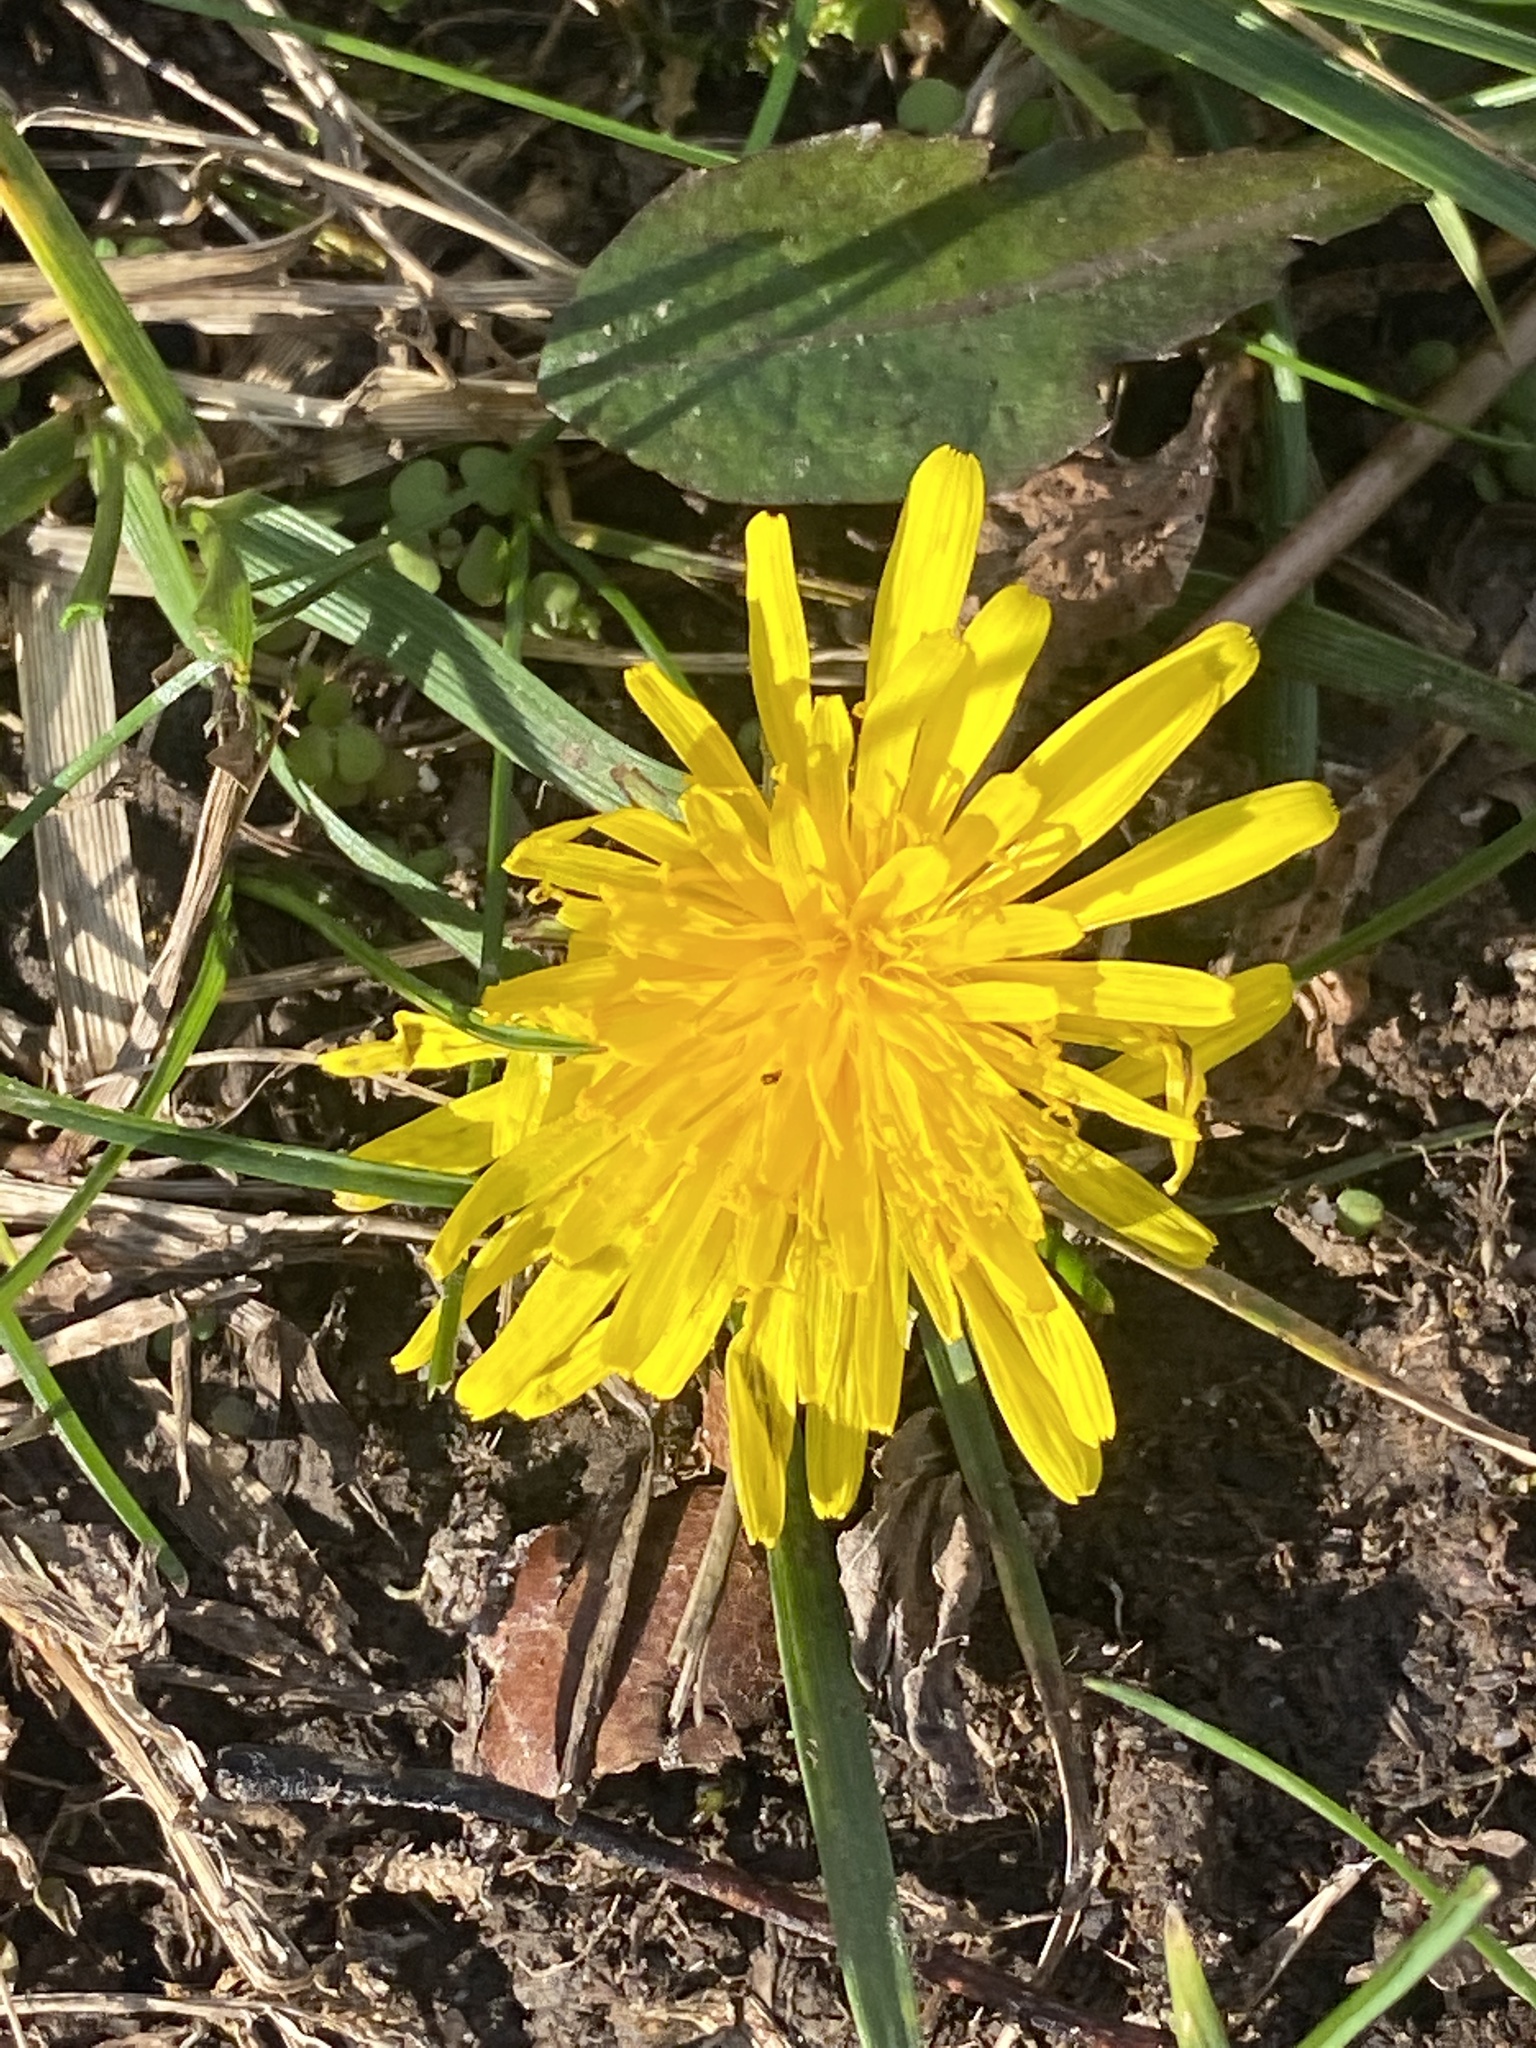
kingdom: Plantae
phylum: Tracheophyta
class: Magnoliopsida
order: Asterales
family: Asteraceae
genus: Taraxacum
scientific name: Taraxacum officinale
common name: Common dandelion
